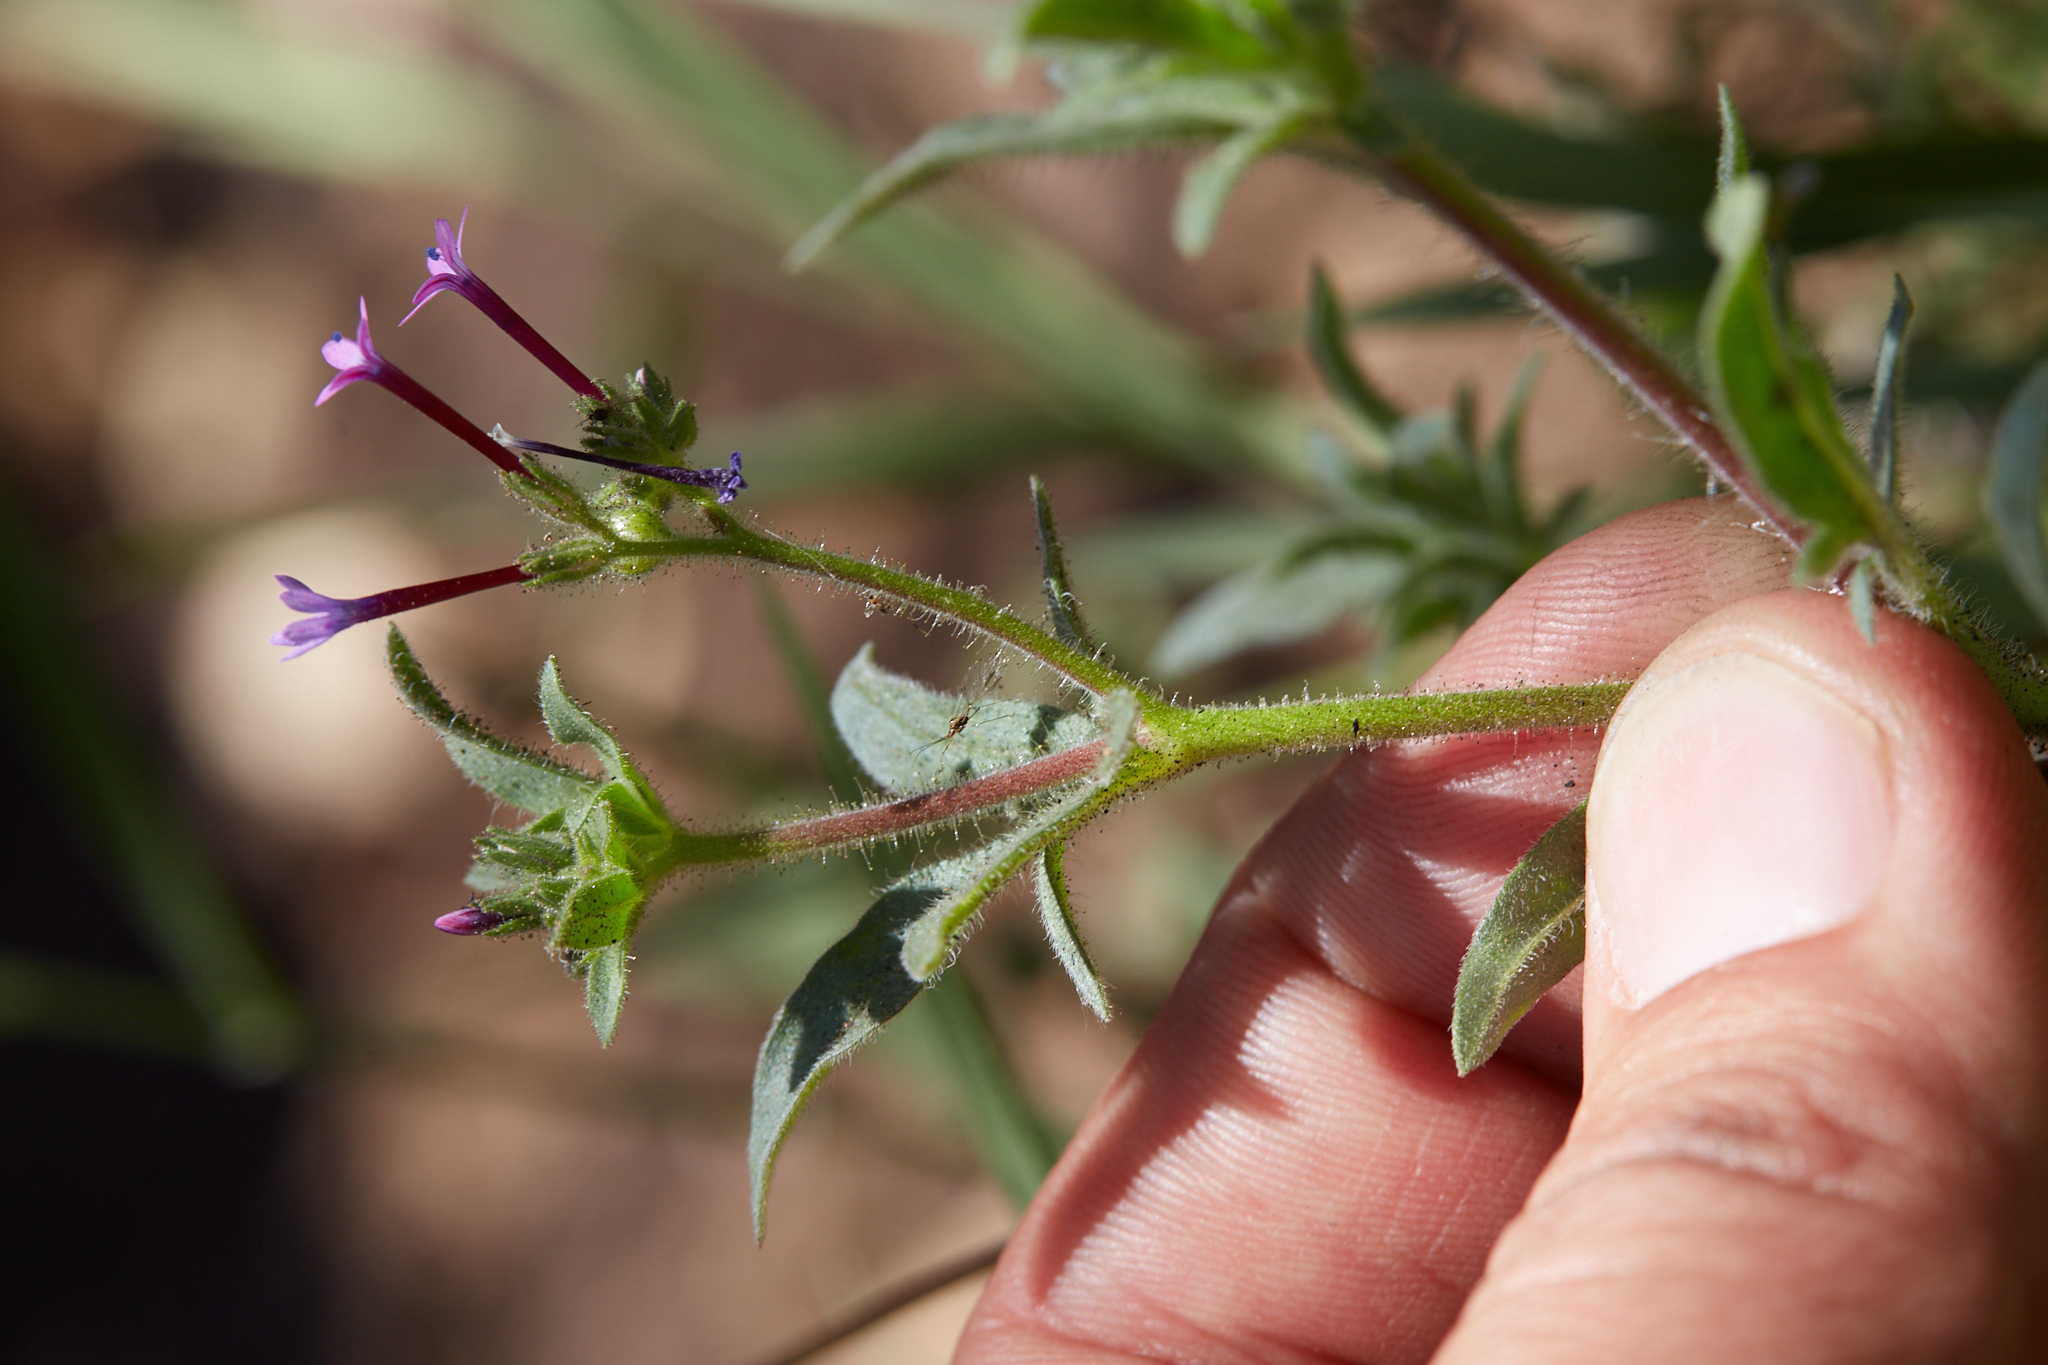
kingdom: Plantae
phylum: Tracheophyta
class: Magnoliopsida
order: Ericales
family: Polemoniaceae
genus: Allophyllum
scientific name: Allophyllum divaricatum
